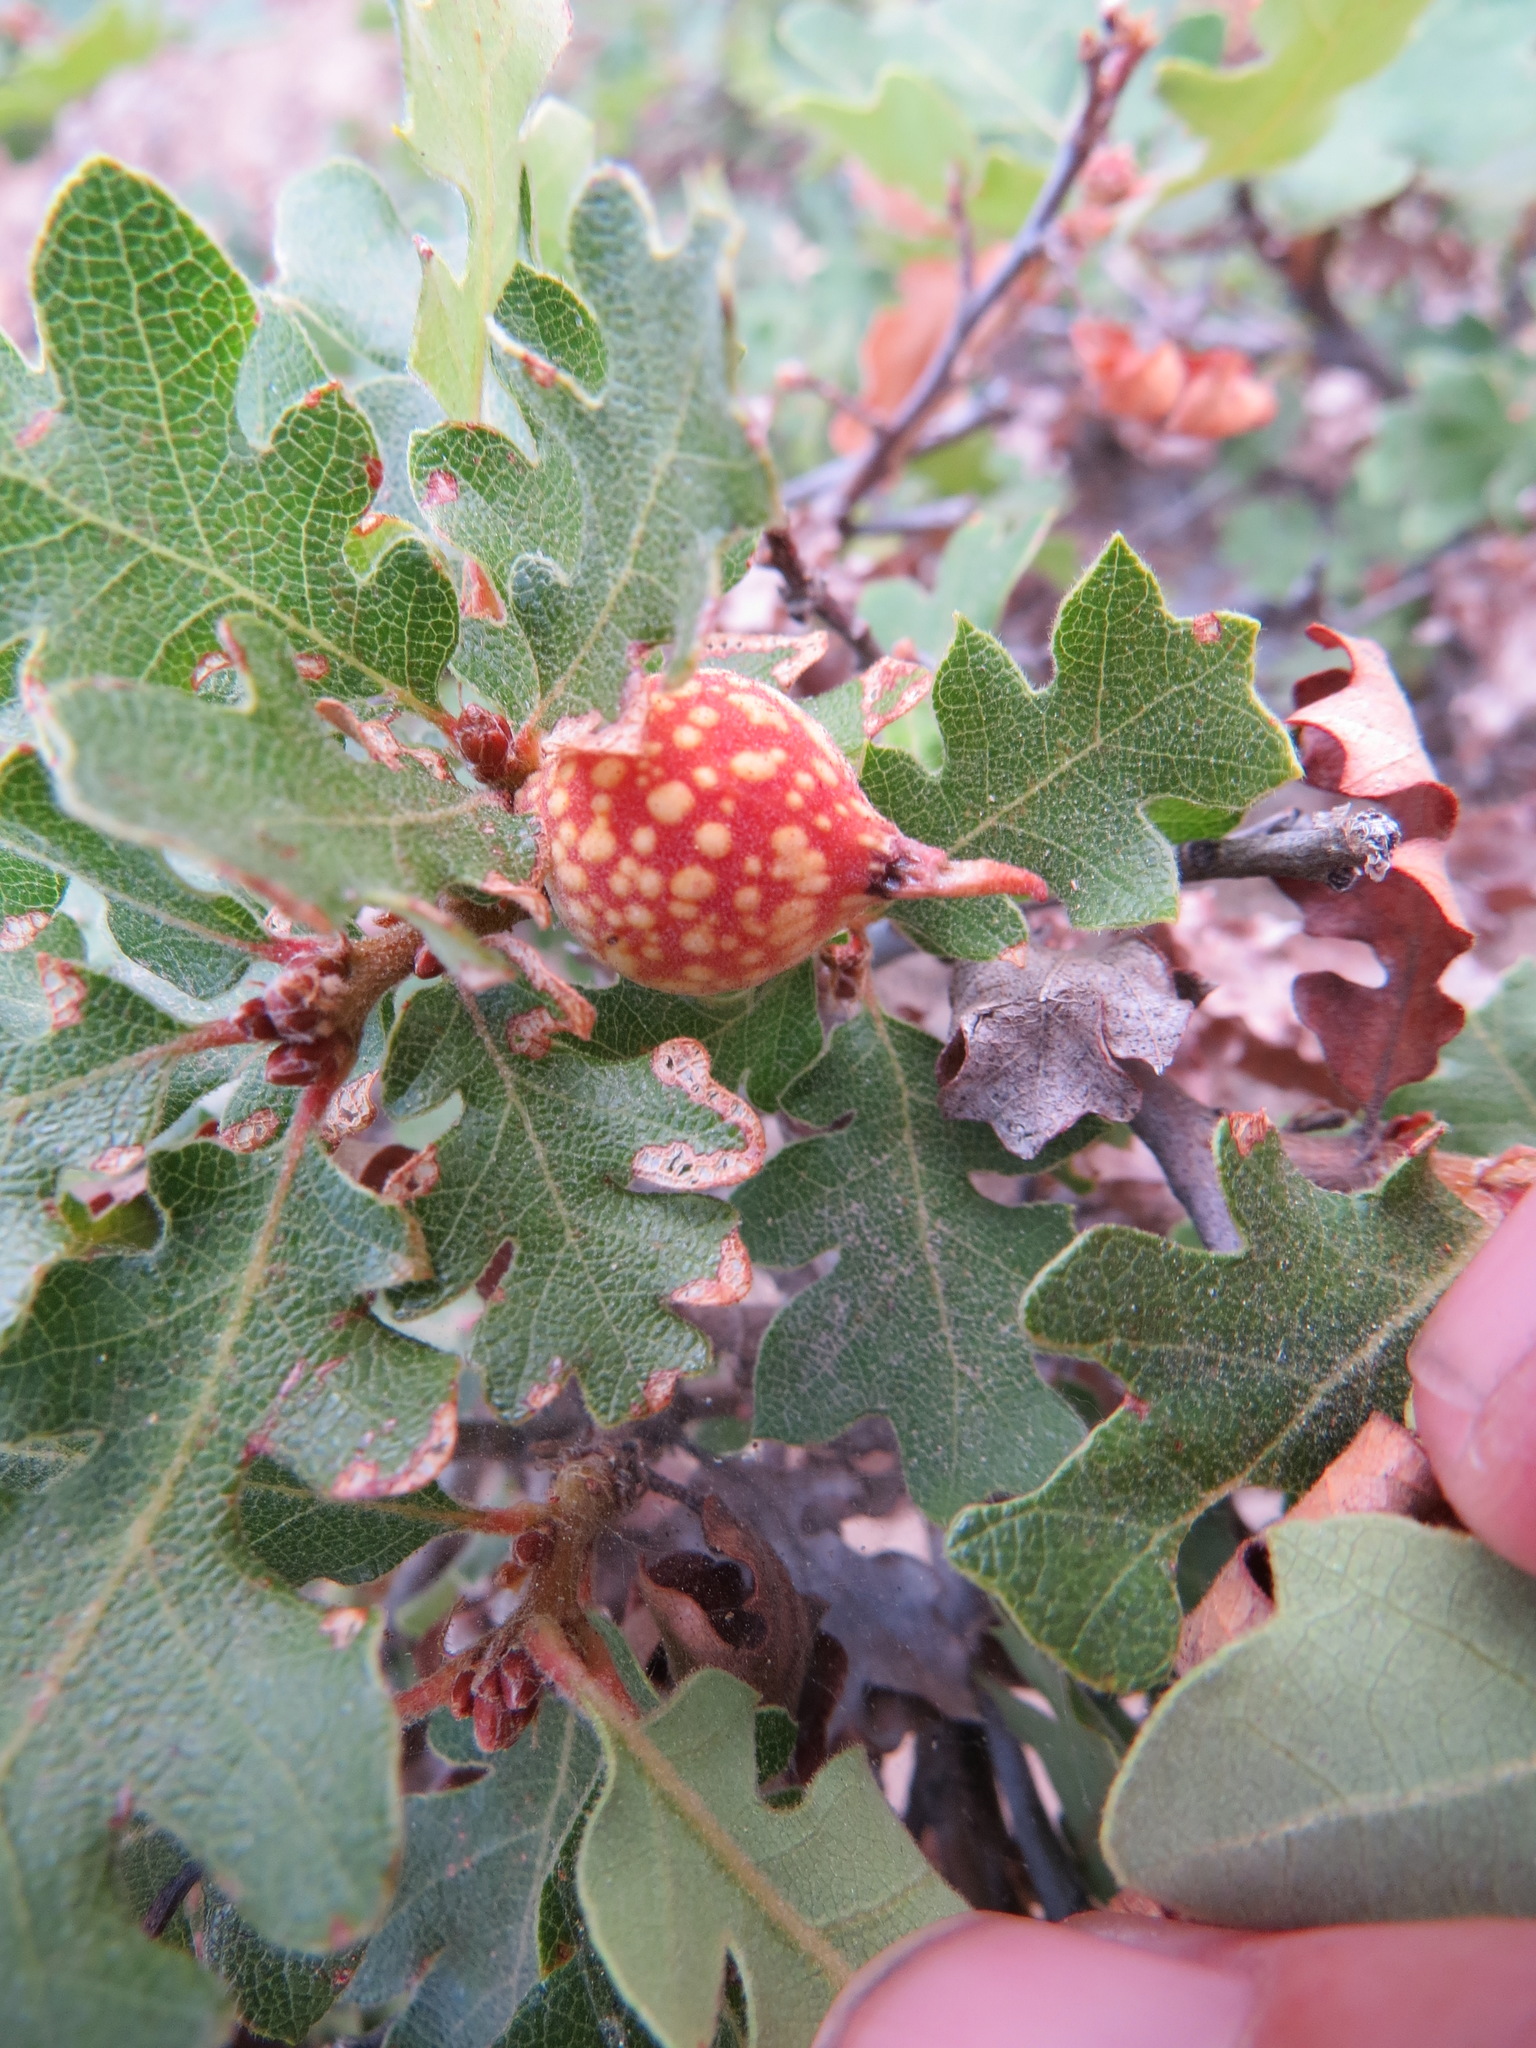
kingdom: Animalia
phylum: Arthropoda
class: Insecta
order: Hymenoptera
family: Cynipidae
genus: Burnettweldia
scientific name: Burnettweldia
